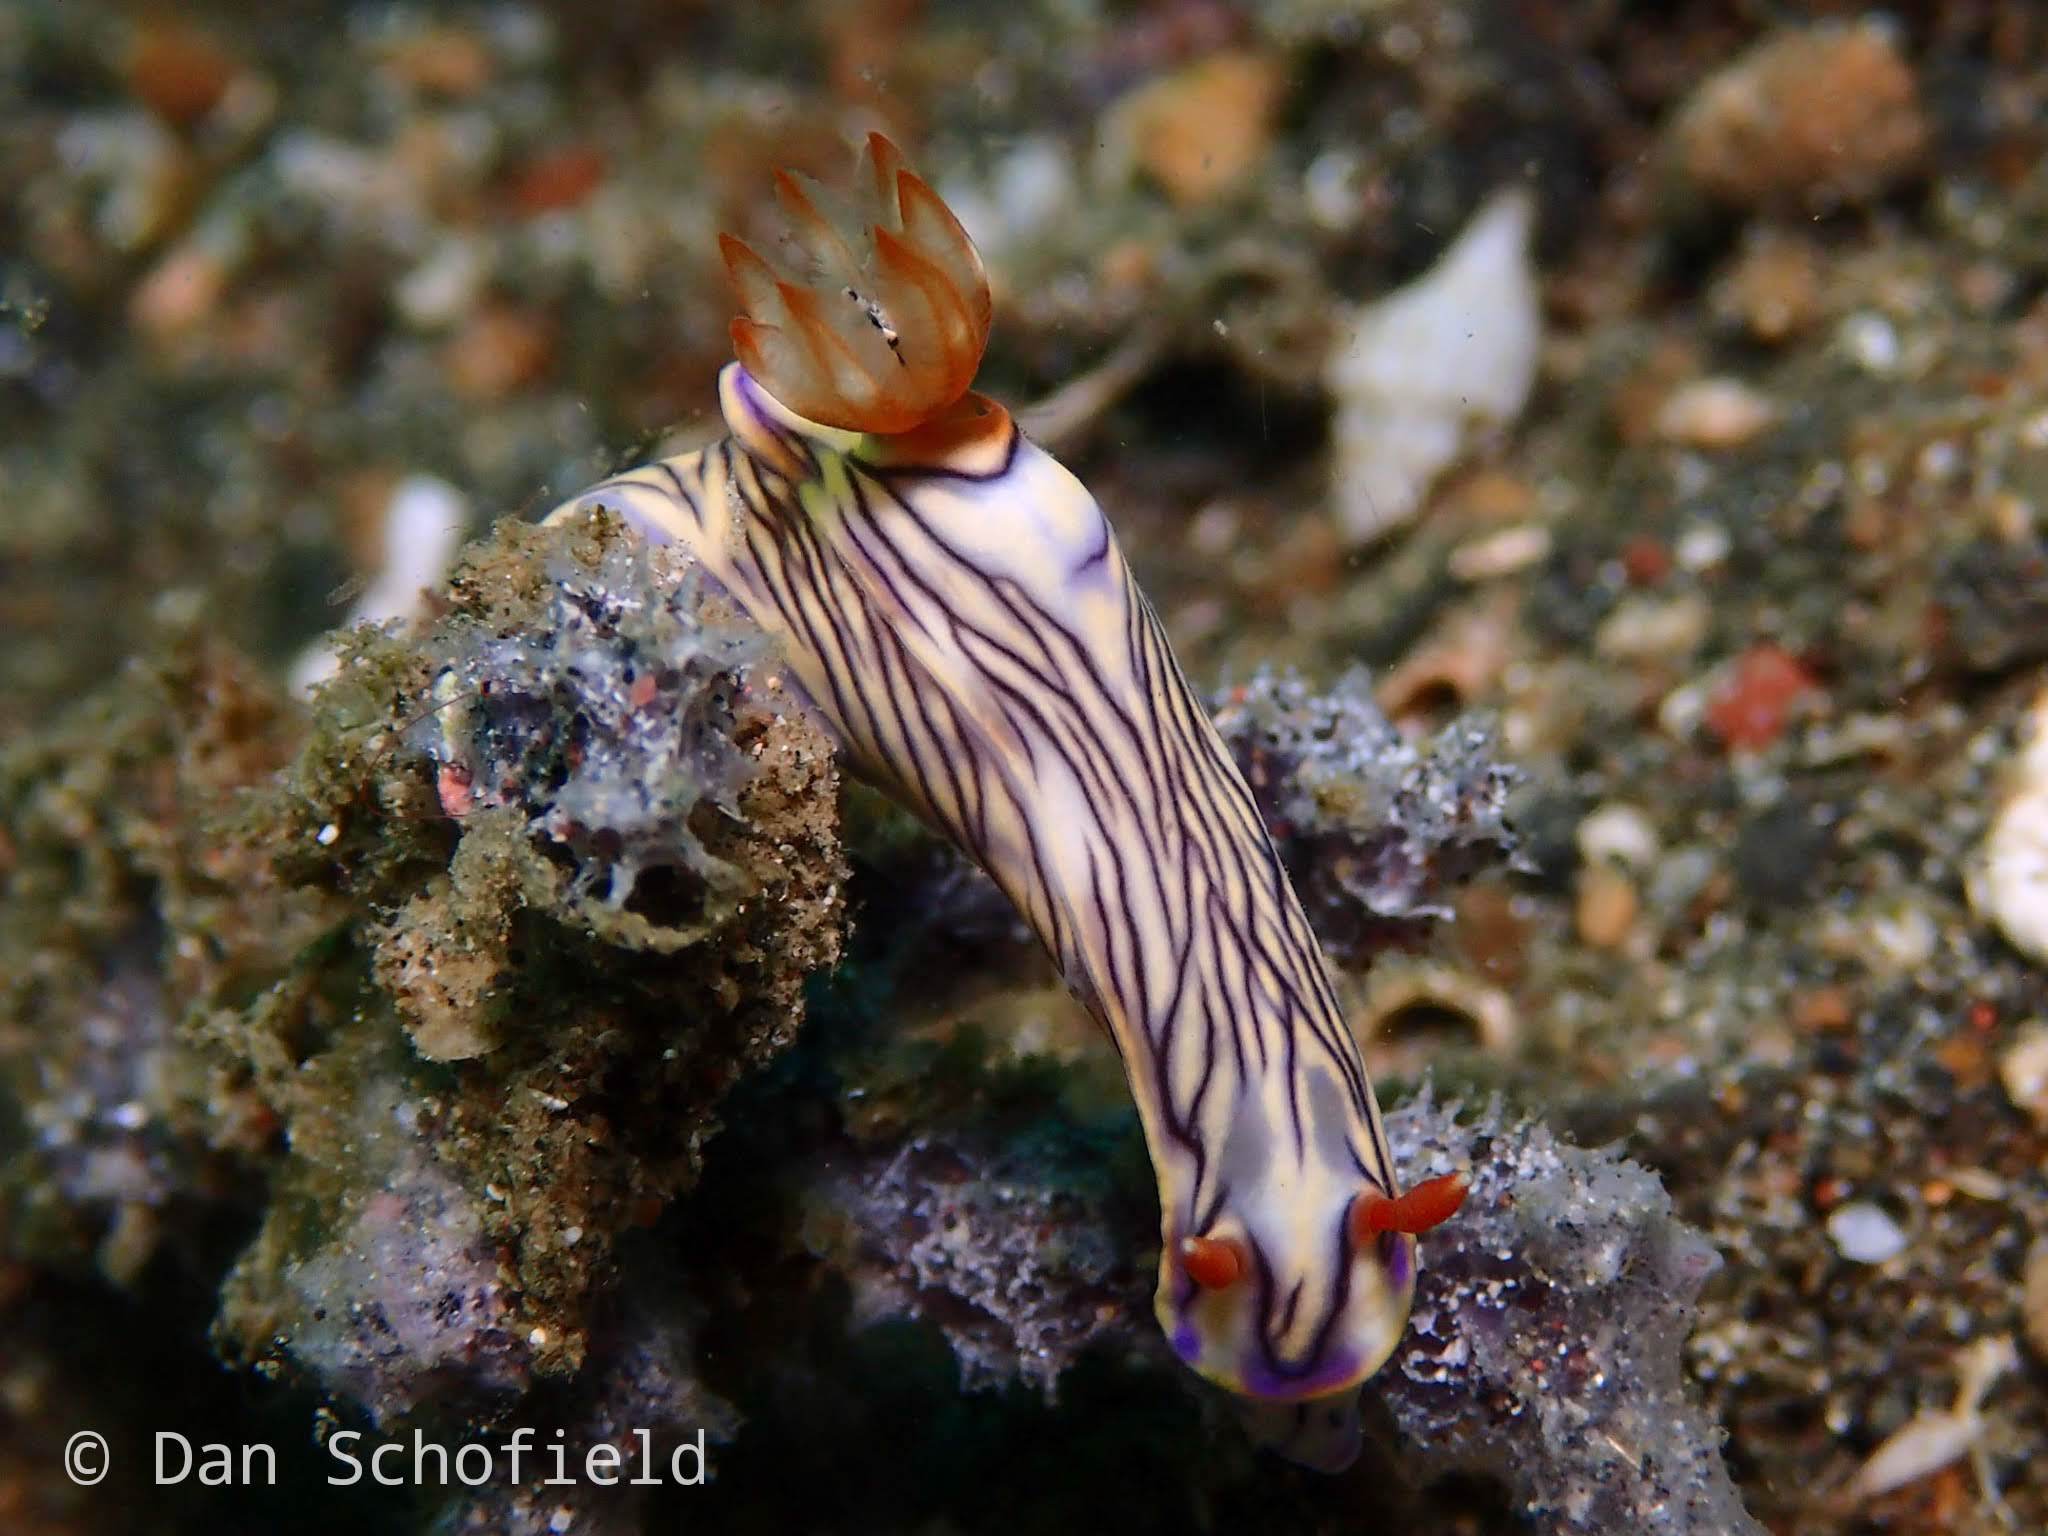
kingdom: Animalia
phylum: Mollusca
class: Gastropoda
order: Nudibranchia
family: Chromodorididae
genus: Hypselodoris
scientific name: Hypselodoris zephyra
